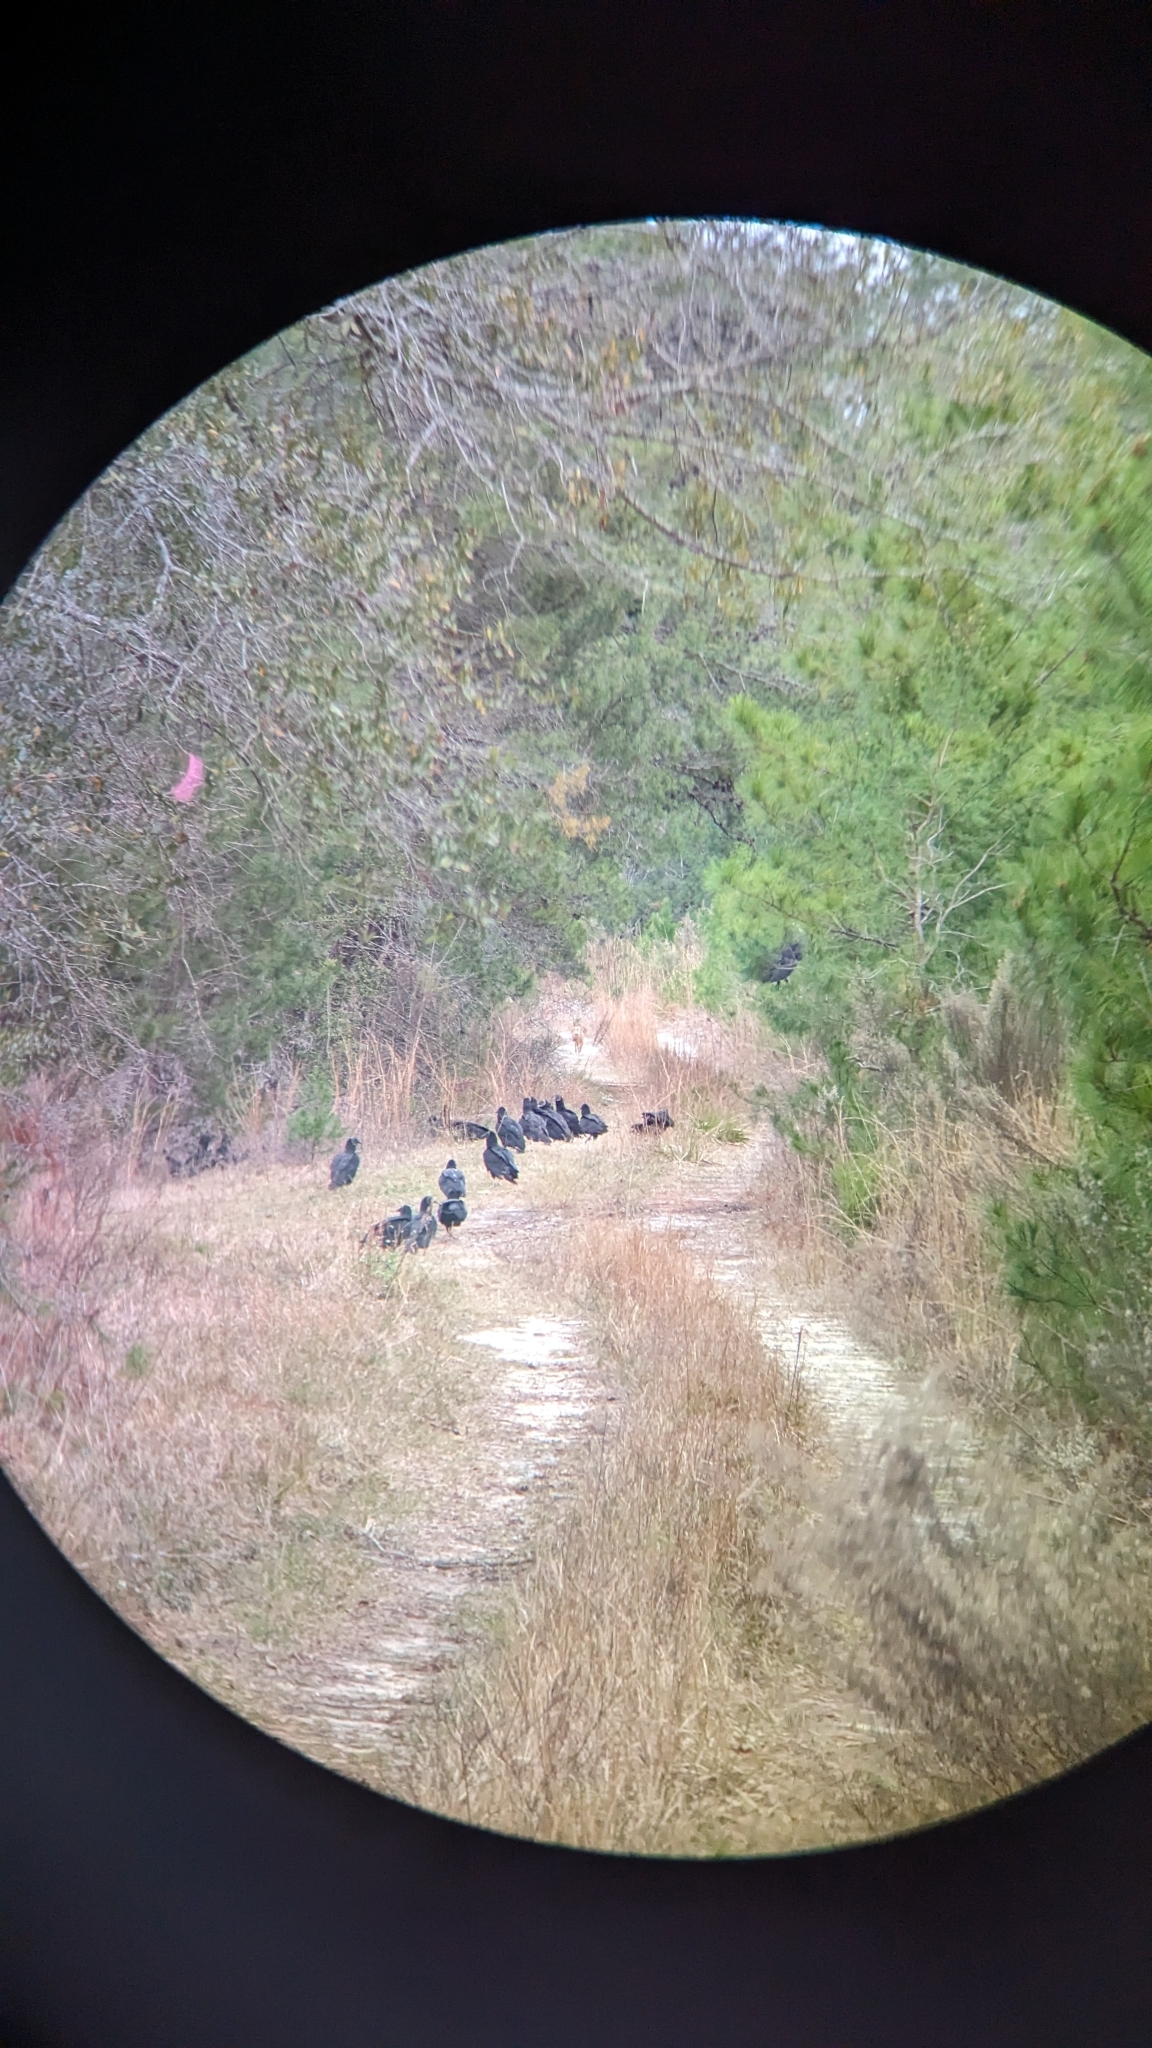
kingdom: Animalia
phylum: Chordata
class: Aves
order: Accipitriformes
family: Cathartidae
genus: Coragyps
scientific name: Coragyps atratus
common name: Black vulture
